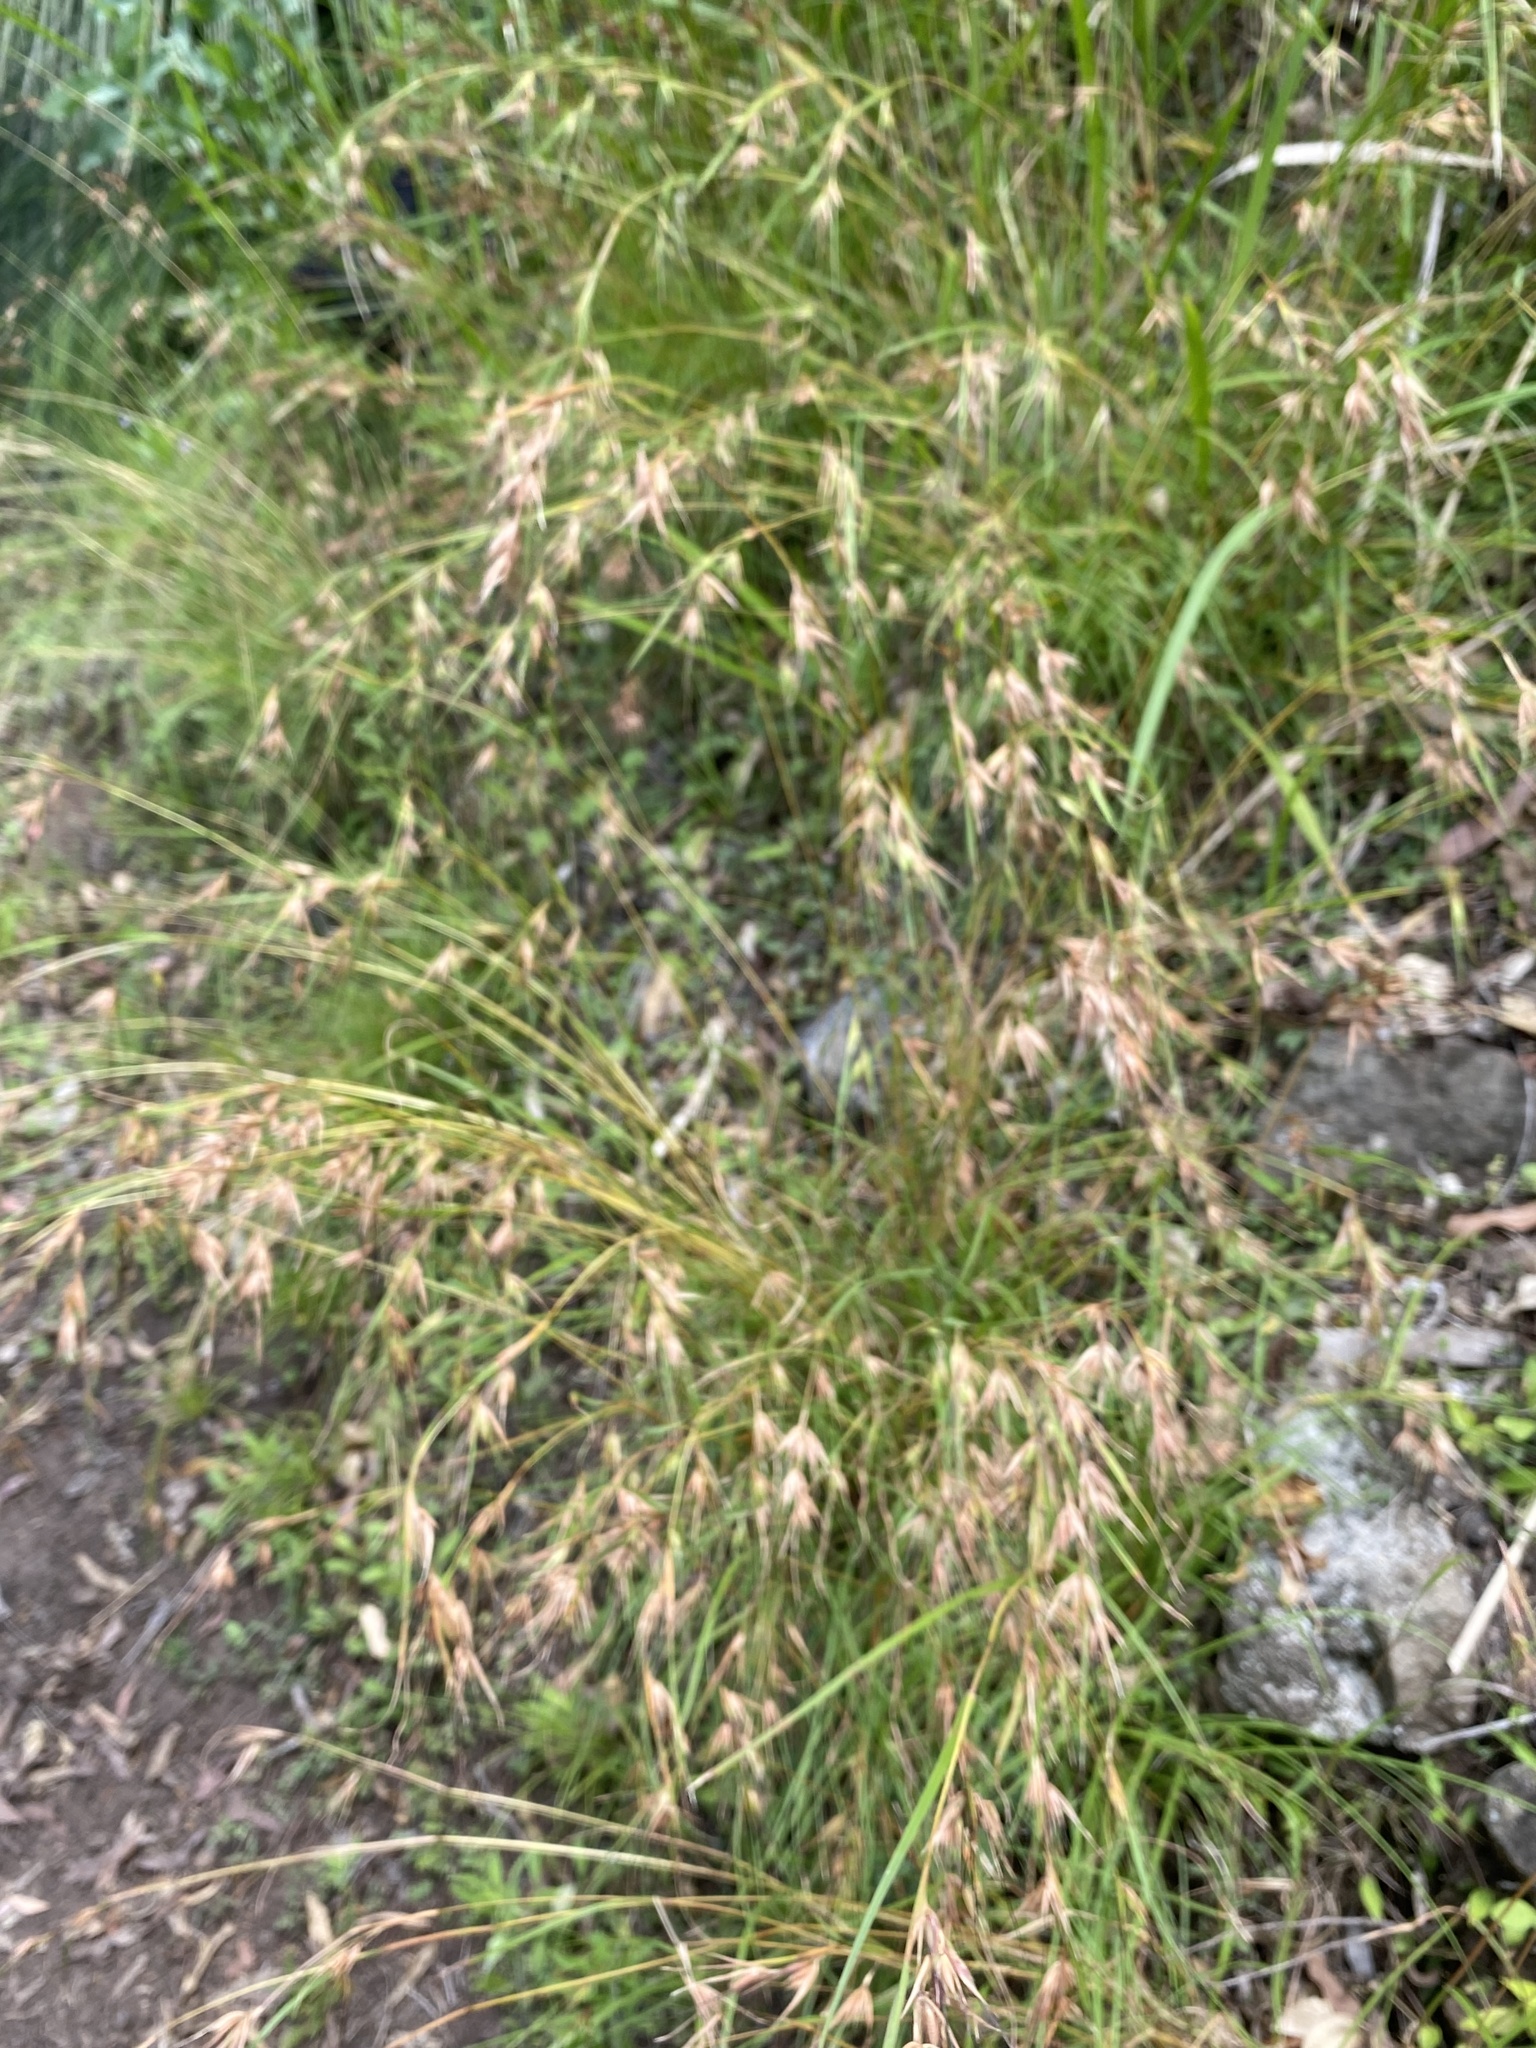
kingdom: Plantae
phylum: Tracheophyta
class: Liliopsida
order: Poales
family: Poaceae
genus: Themeda
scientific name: Themeda triandra
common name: Kangaroo grass
